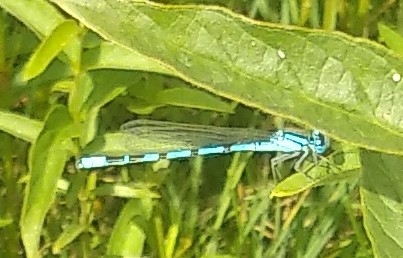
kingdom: Animalia
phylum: Arthropoda
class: Insecta
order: Odonata
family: Coenagrionidae
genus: Enallagma
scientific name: Enallagma cyathigerum
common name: Common blue damselfly
